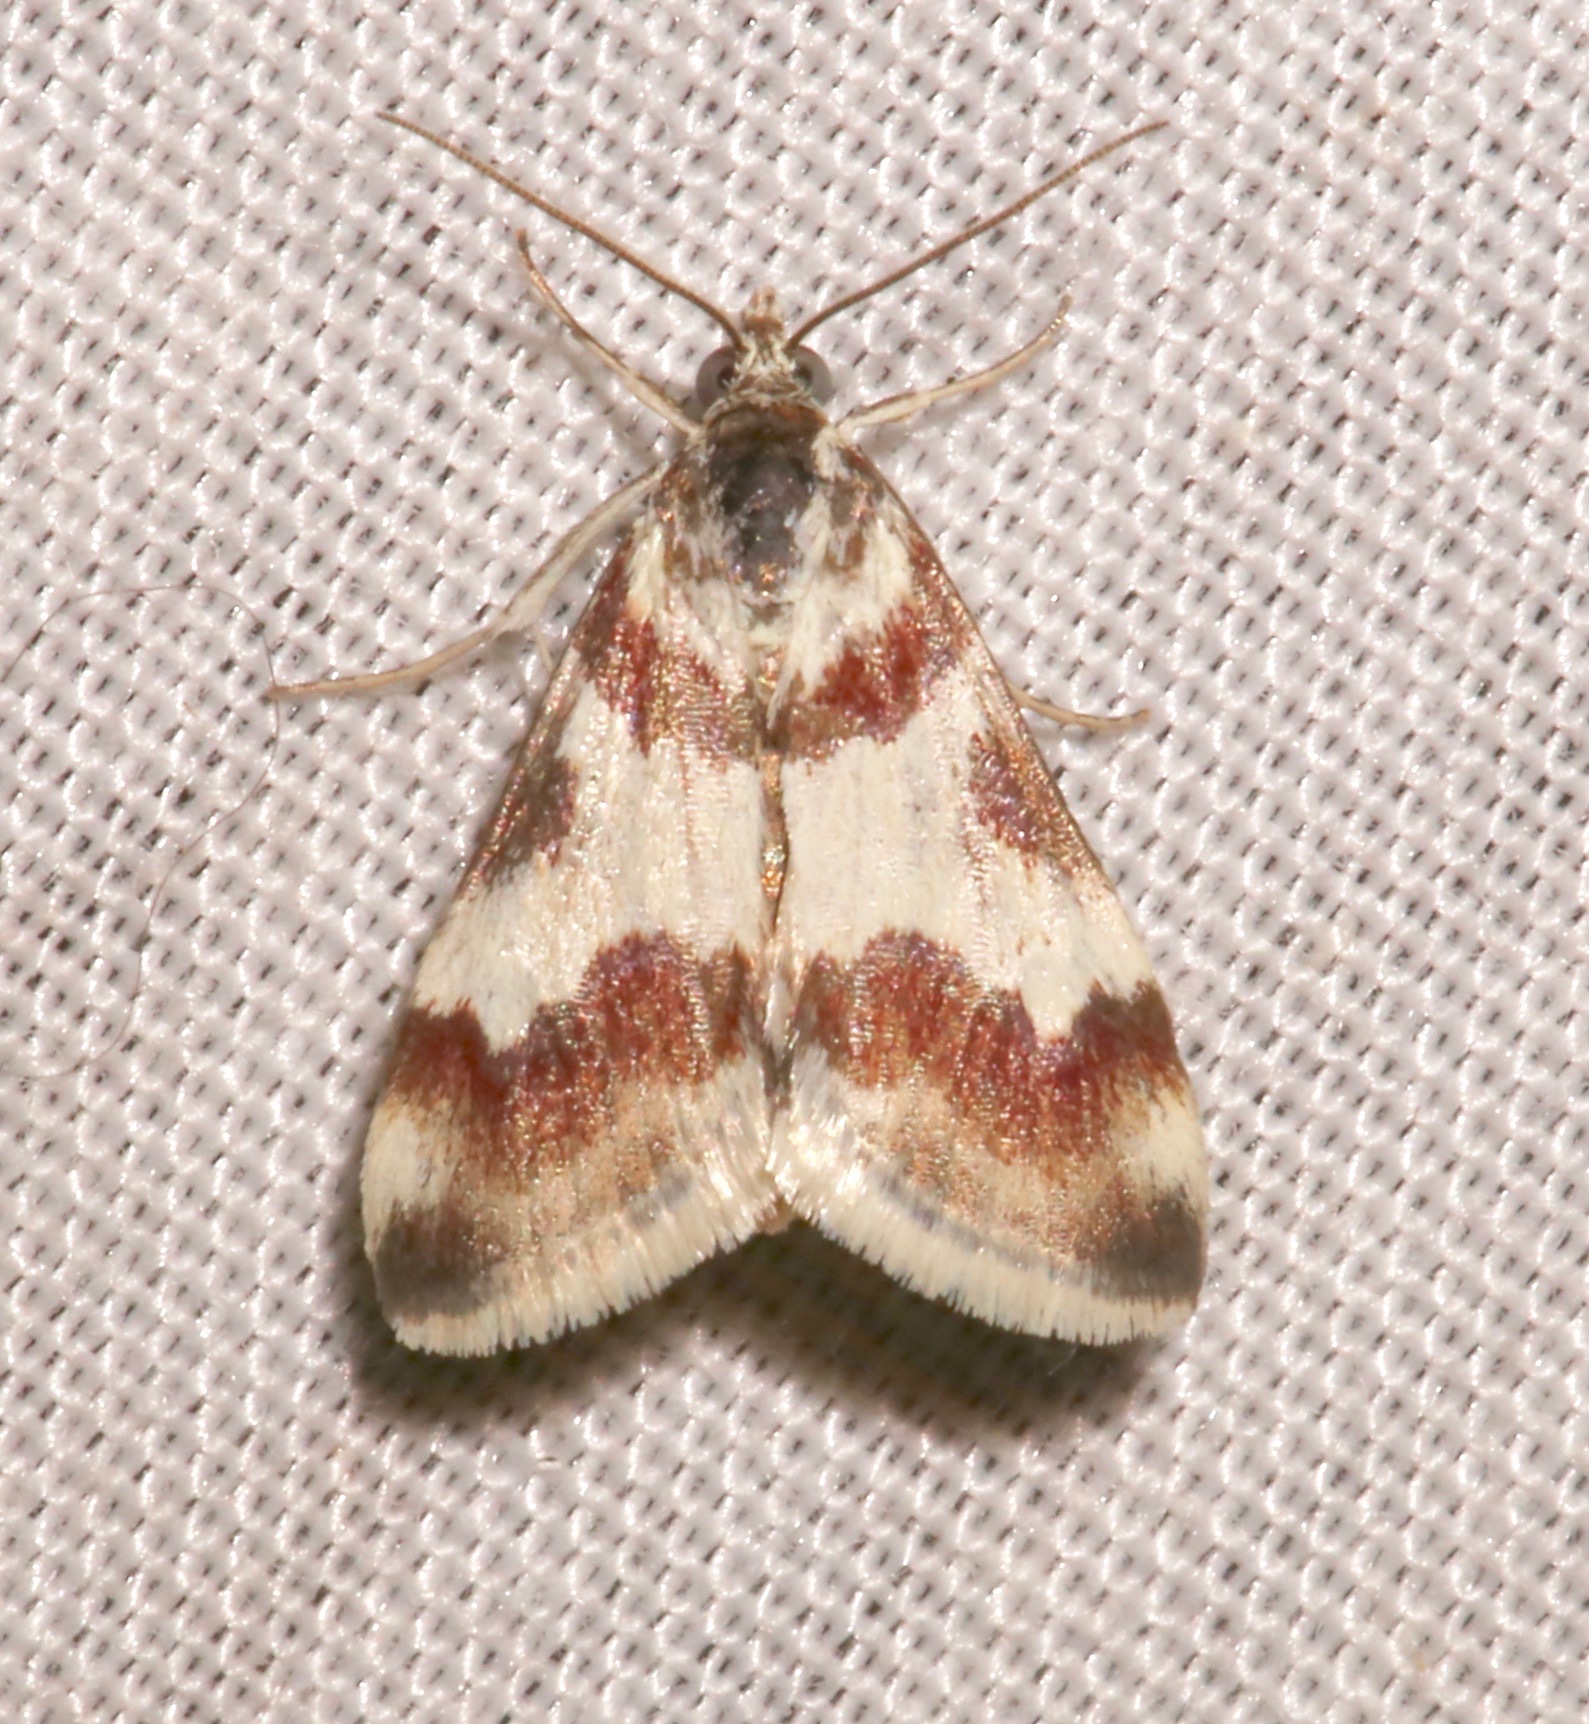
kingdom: Animalia
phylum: Arthropoda
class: Insecta
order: Lepidoptera
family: Crambidae
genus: Noctuelia
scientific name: Noctuelia Mimoschinia rufofascialis
